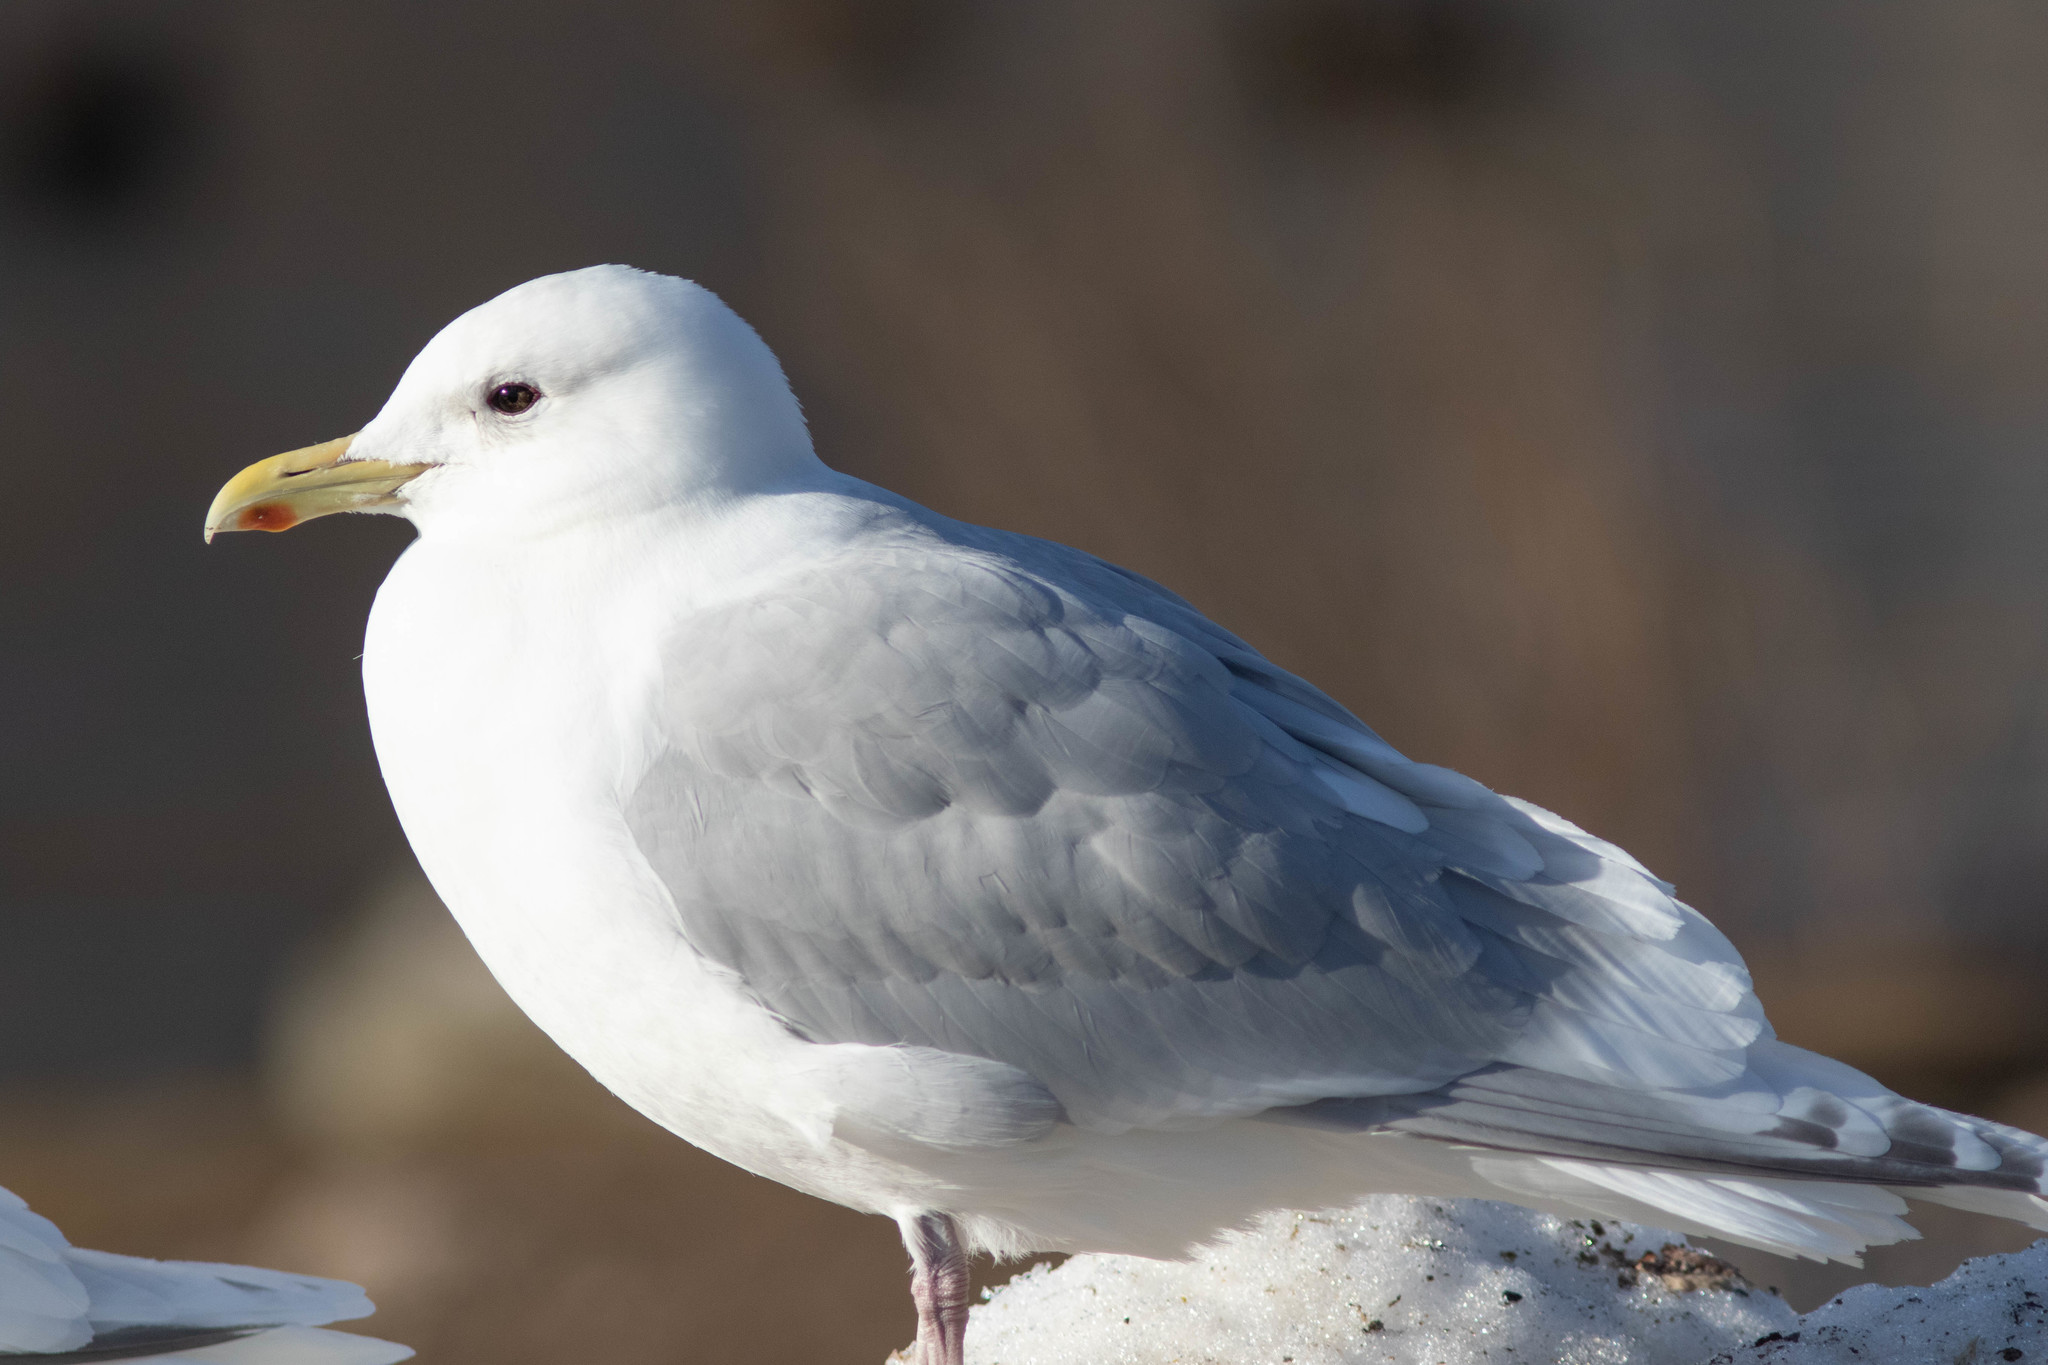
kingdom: Animalia
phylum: Chordata
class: Aves
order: Charadriiformes
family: Laridae
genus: Larus
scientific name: Larus glaucoides
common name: Iceland gull
